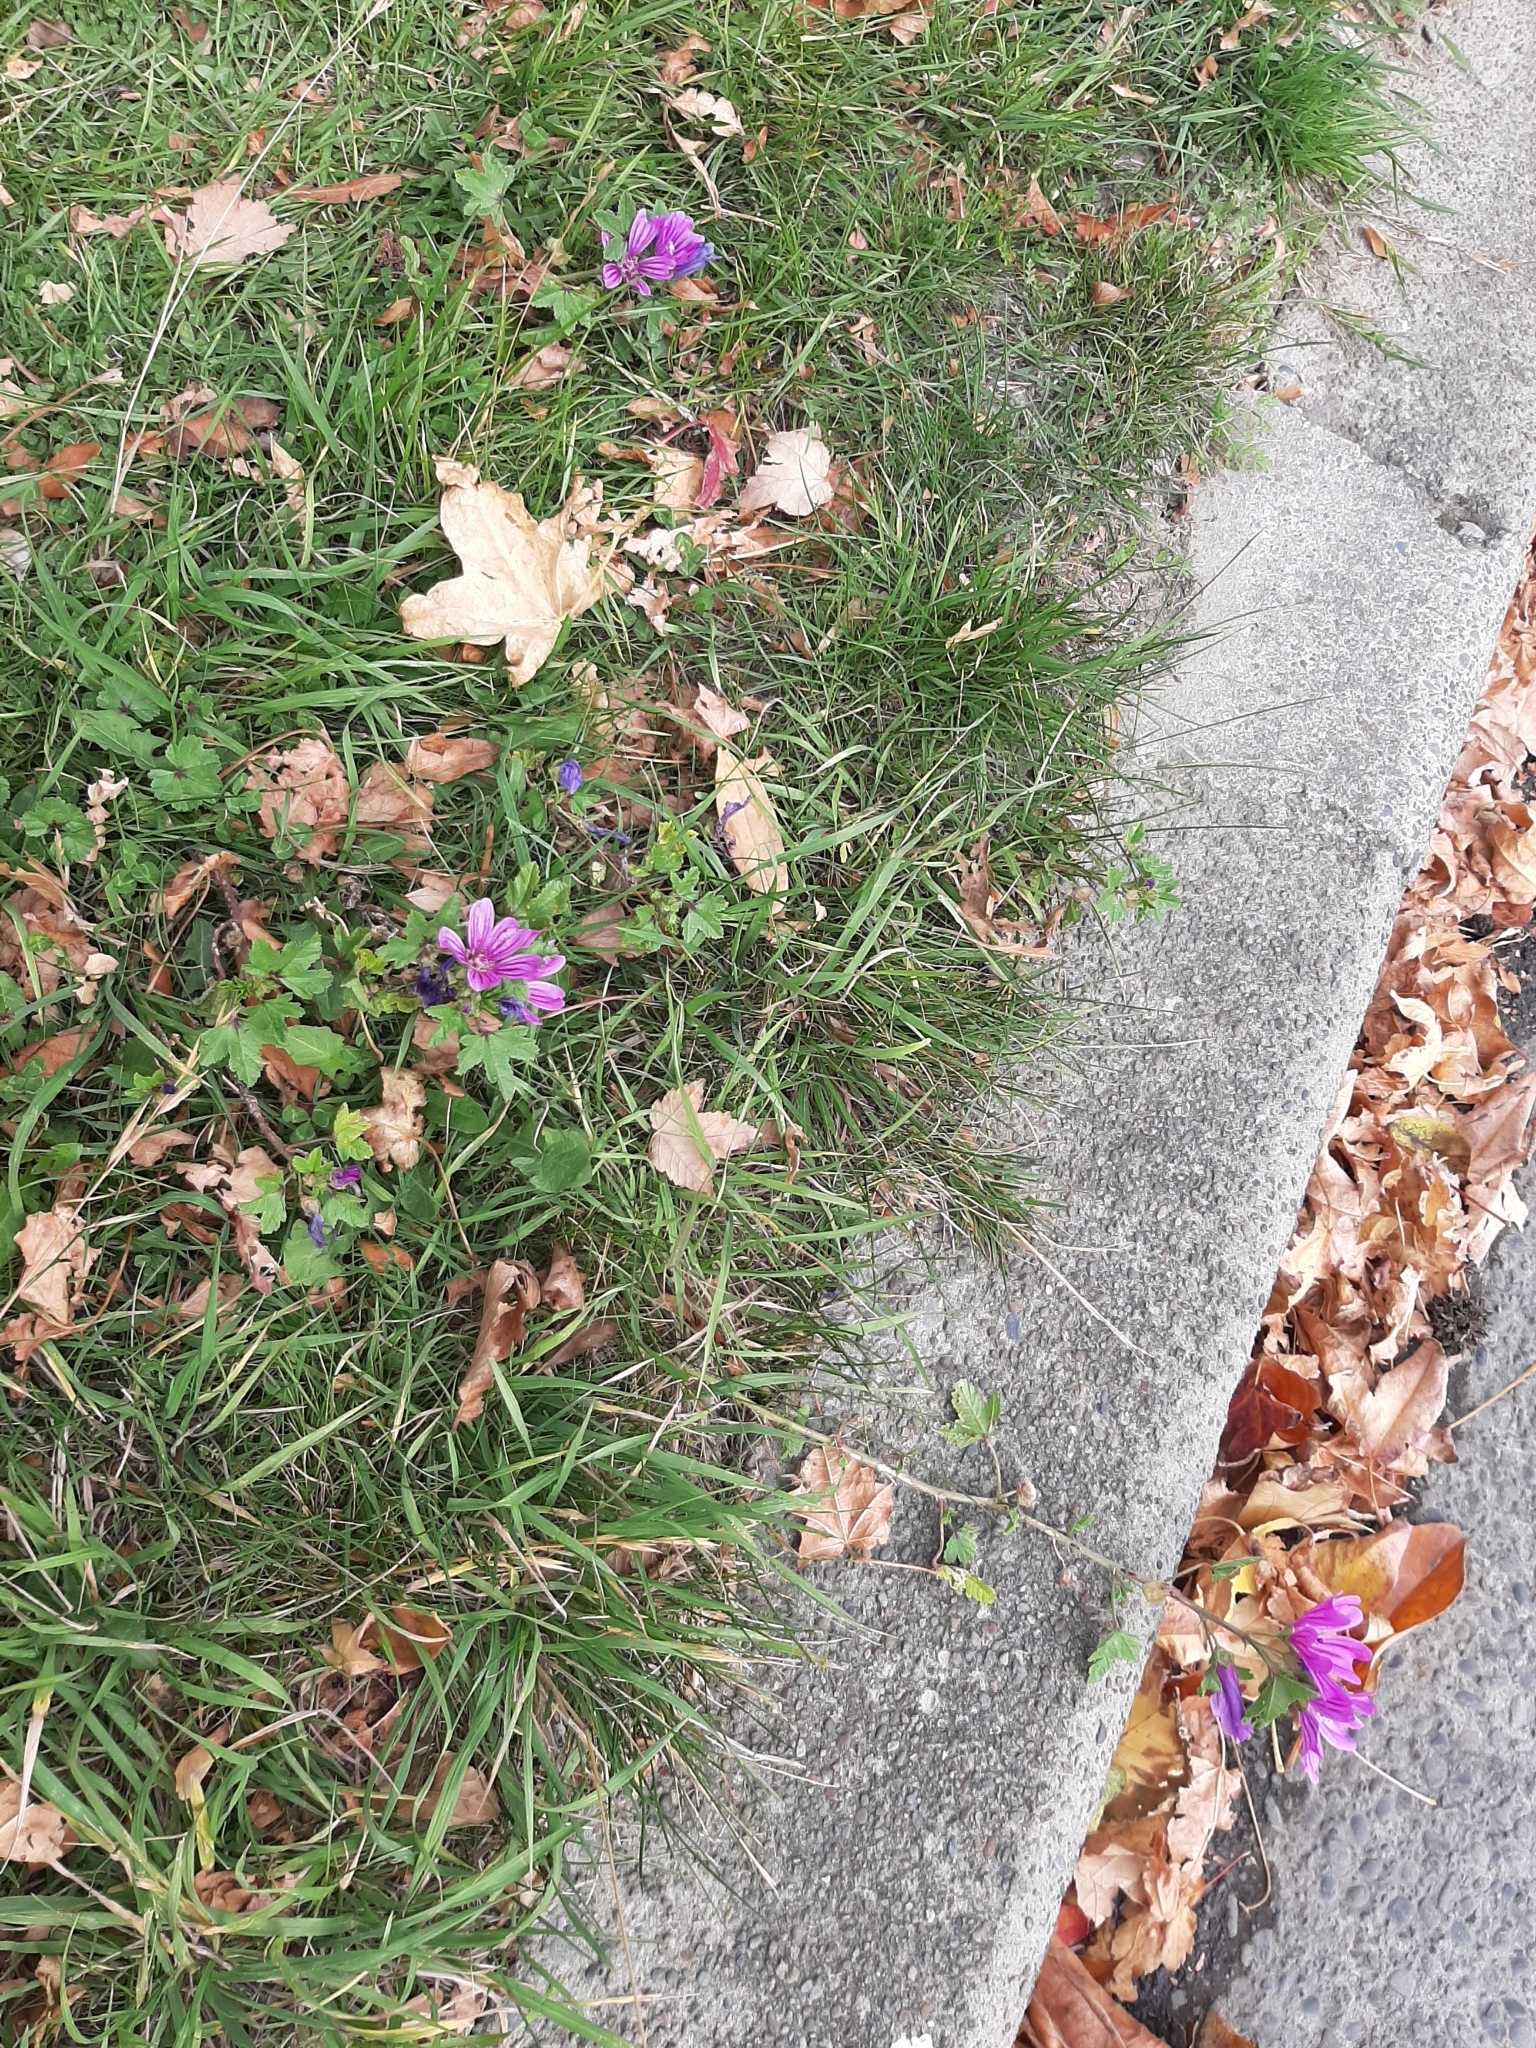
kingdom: Plantae
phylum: Tracheophyta
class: Magnoliopsida
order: Malvales
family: Malvaceae
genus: Malva
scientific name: Malva sylvestris
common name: Common mallow
